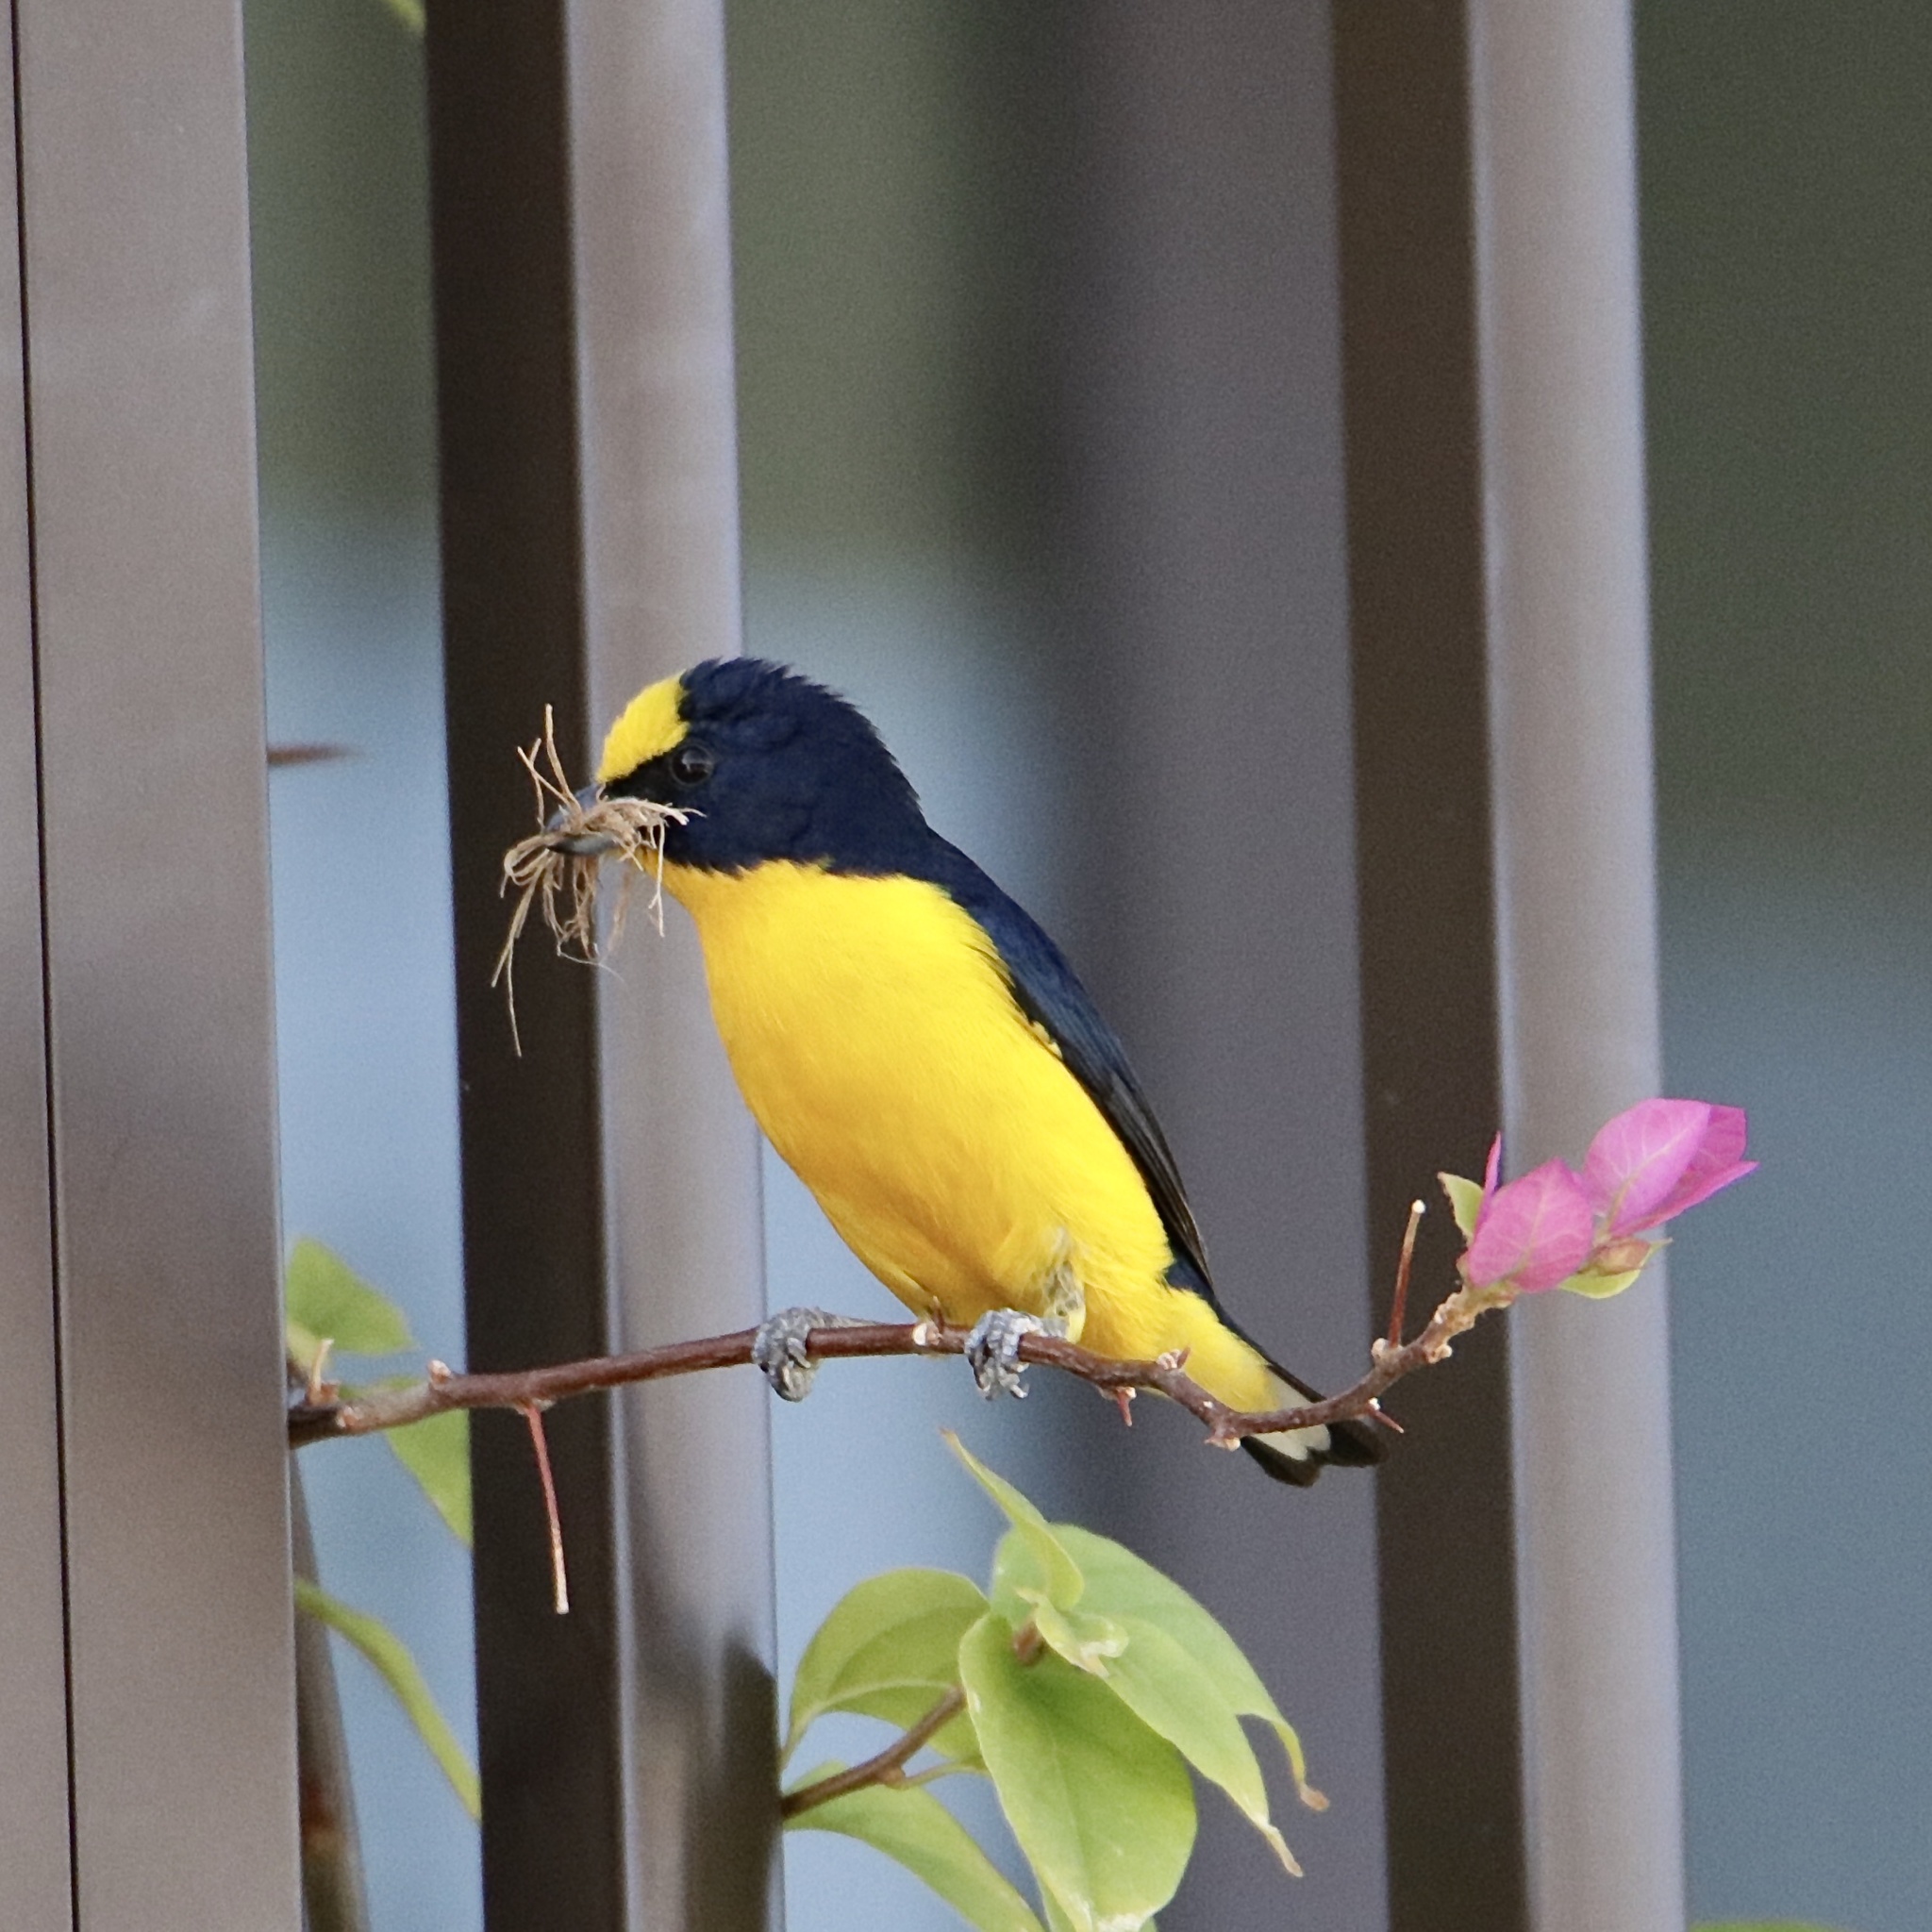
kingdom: Animalia
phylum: Chordata
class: Aves
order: Passeriformes
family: Fringillidae
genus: Euphonia
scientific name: Euphonia laniirostris
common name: Thick-billed euphonia
